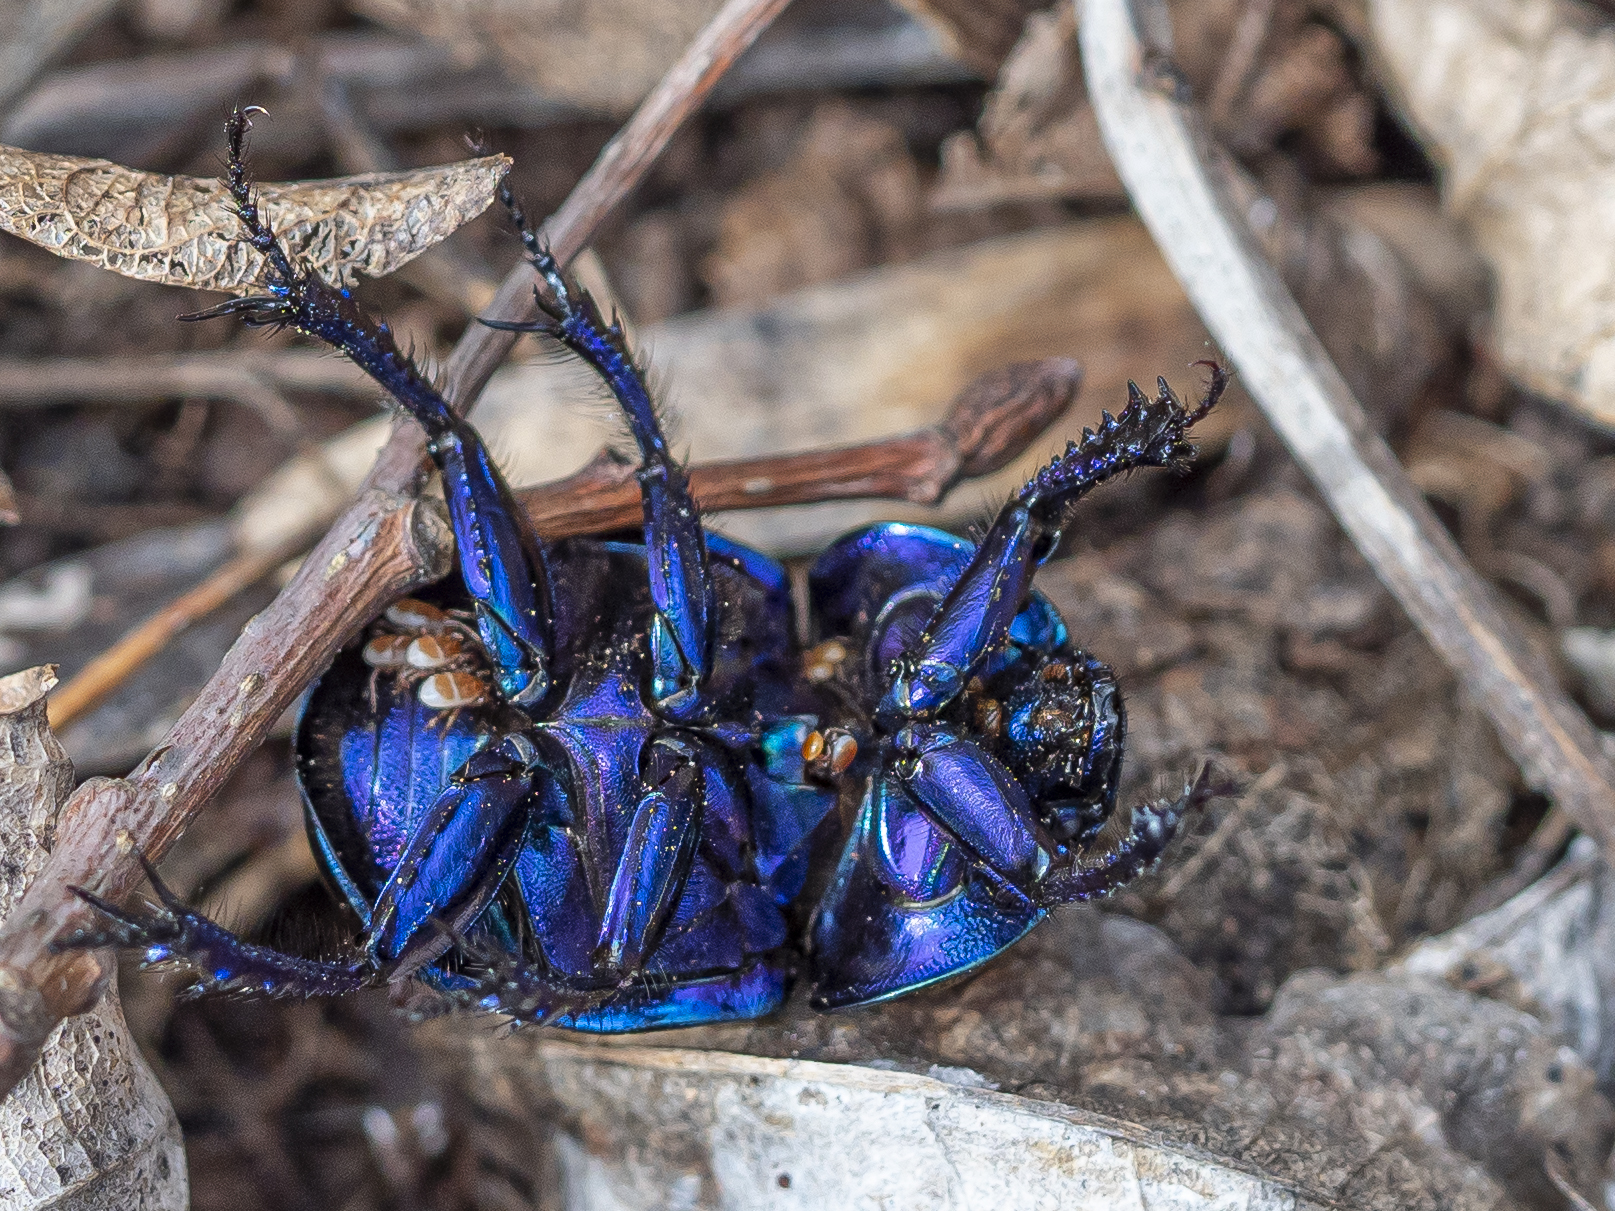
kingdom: Animalia
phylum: Arthropoda
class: Insecta
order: Coleoptera
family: Geotrupidae
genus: Trypocopris
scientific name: Trypocopris vernalis
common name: Spring dumbledor
